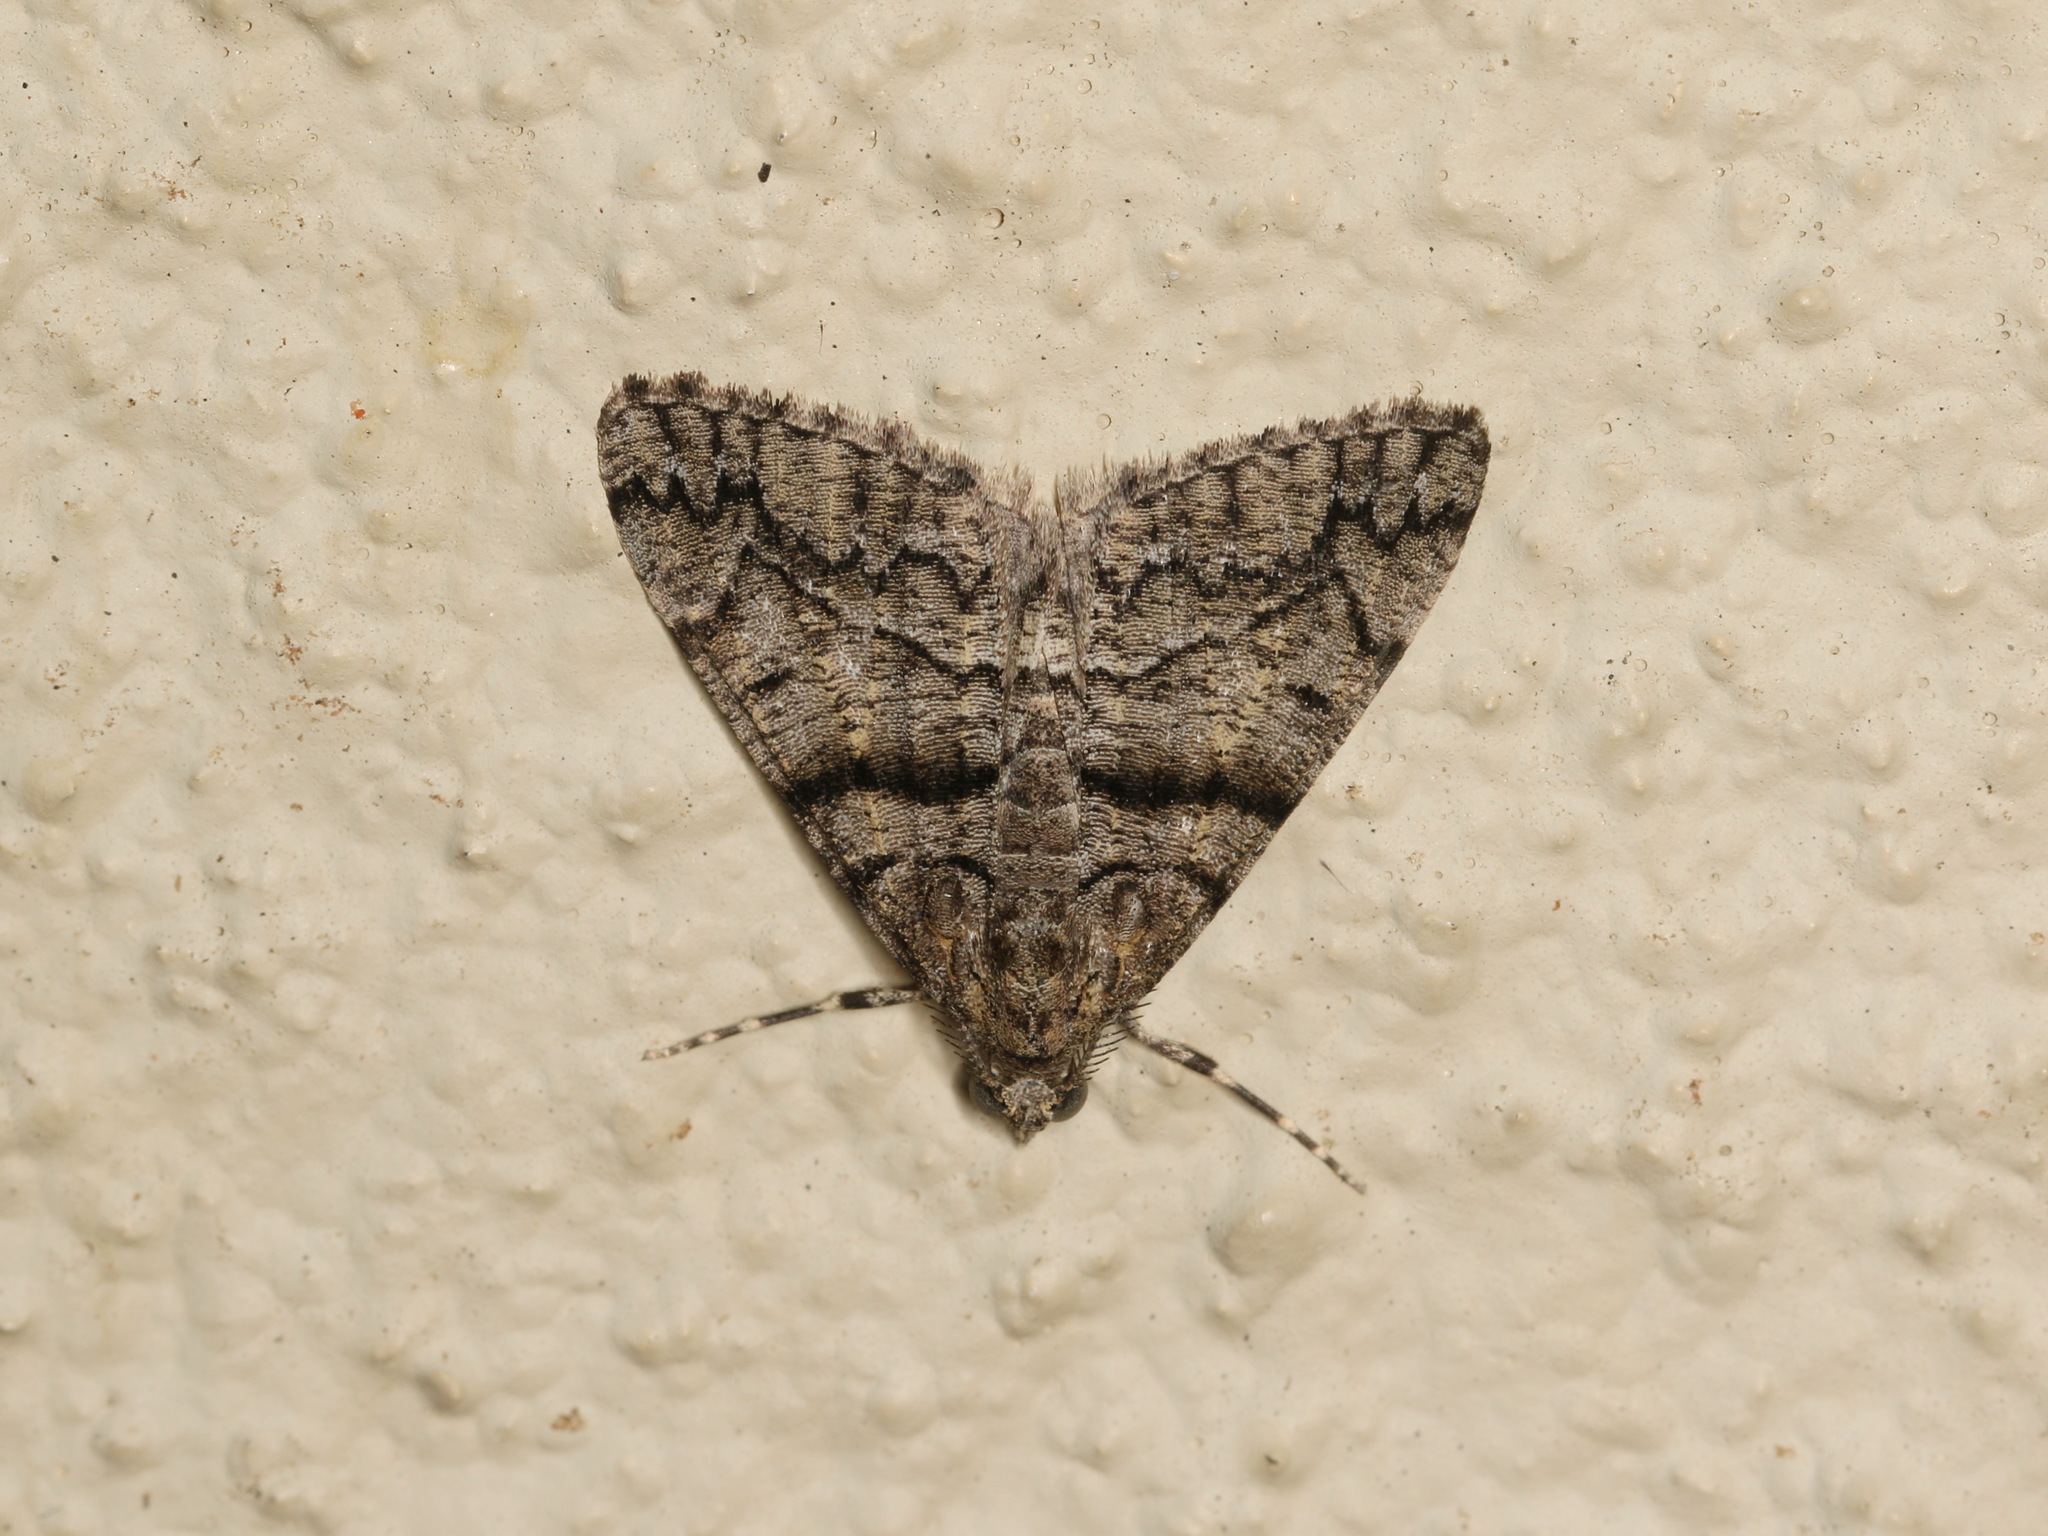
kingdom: Animalia
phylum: Arthropoda
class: Insecta
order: Lepidoptera
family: Geometridae
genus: Lipogya
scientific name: Lipogya exprimataria
